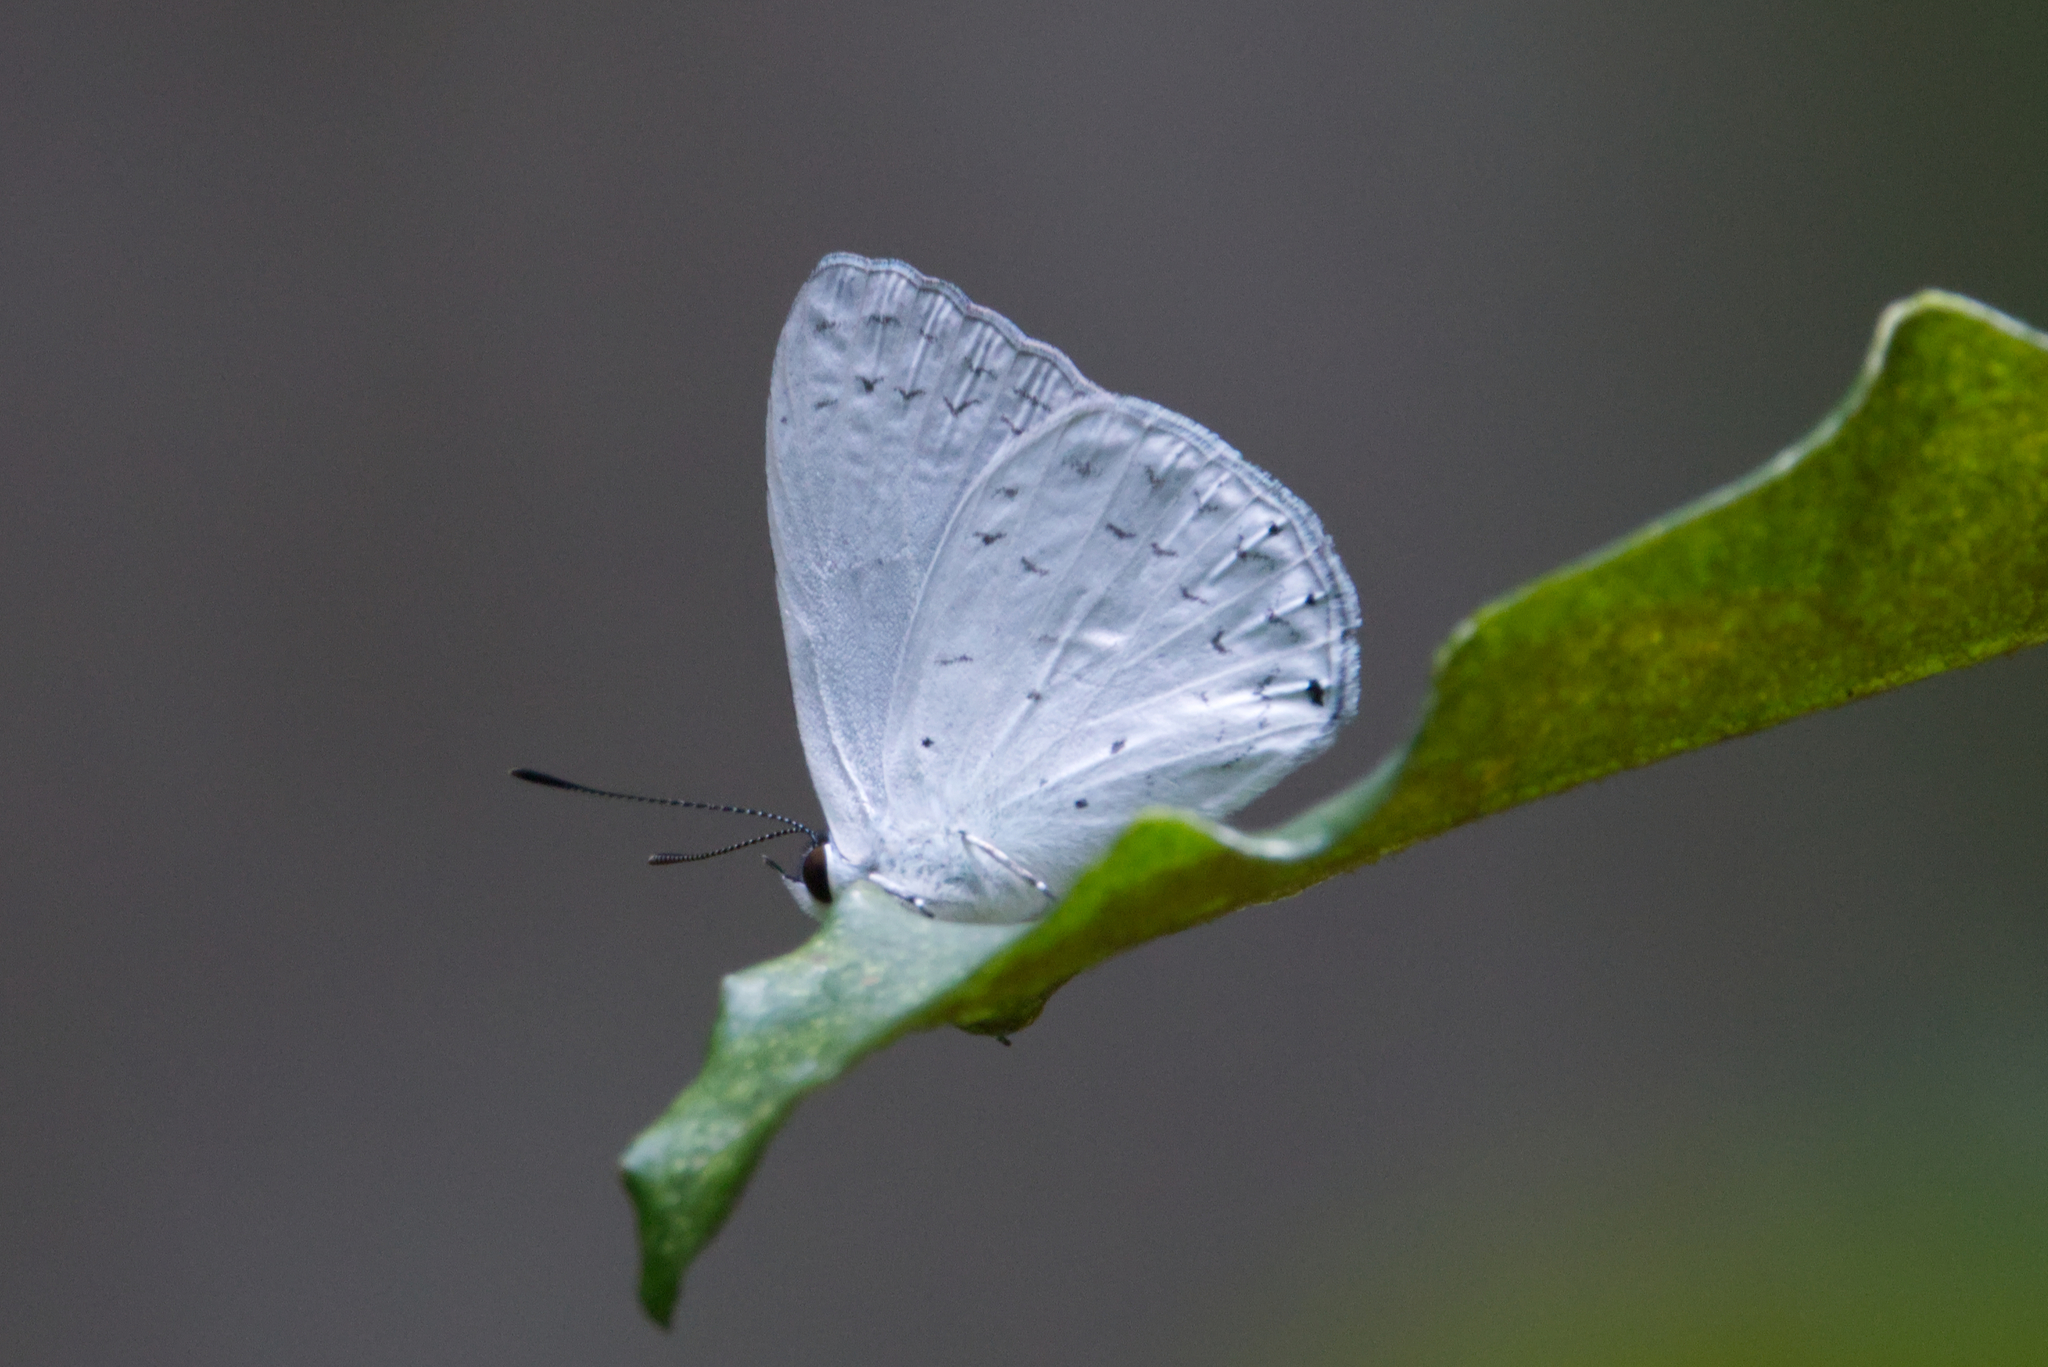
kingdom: Animalia
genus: Eirmocides
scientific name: Eirmocides
